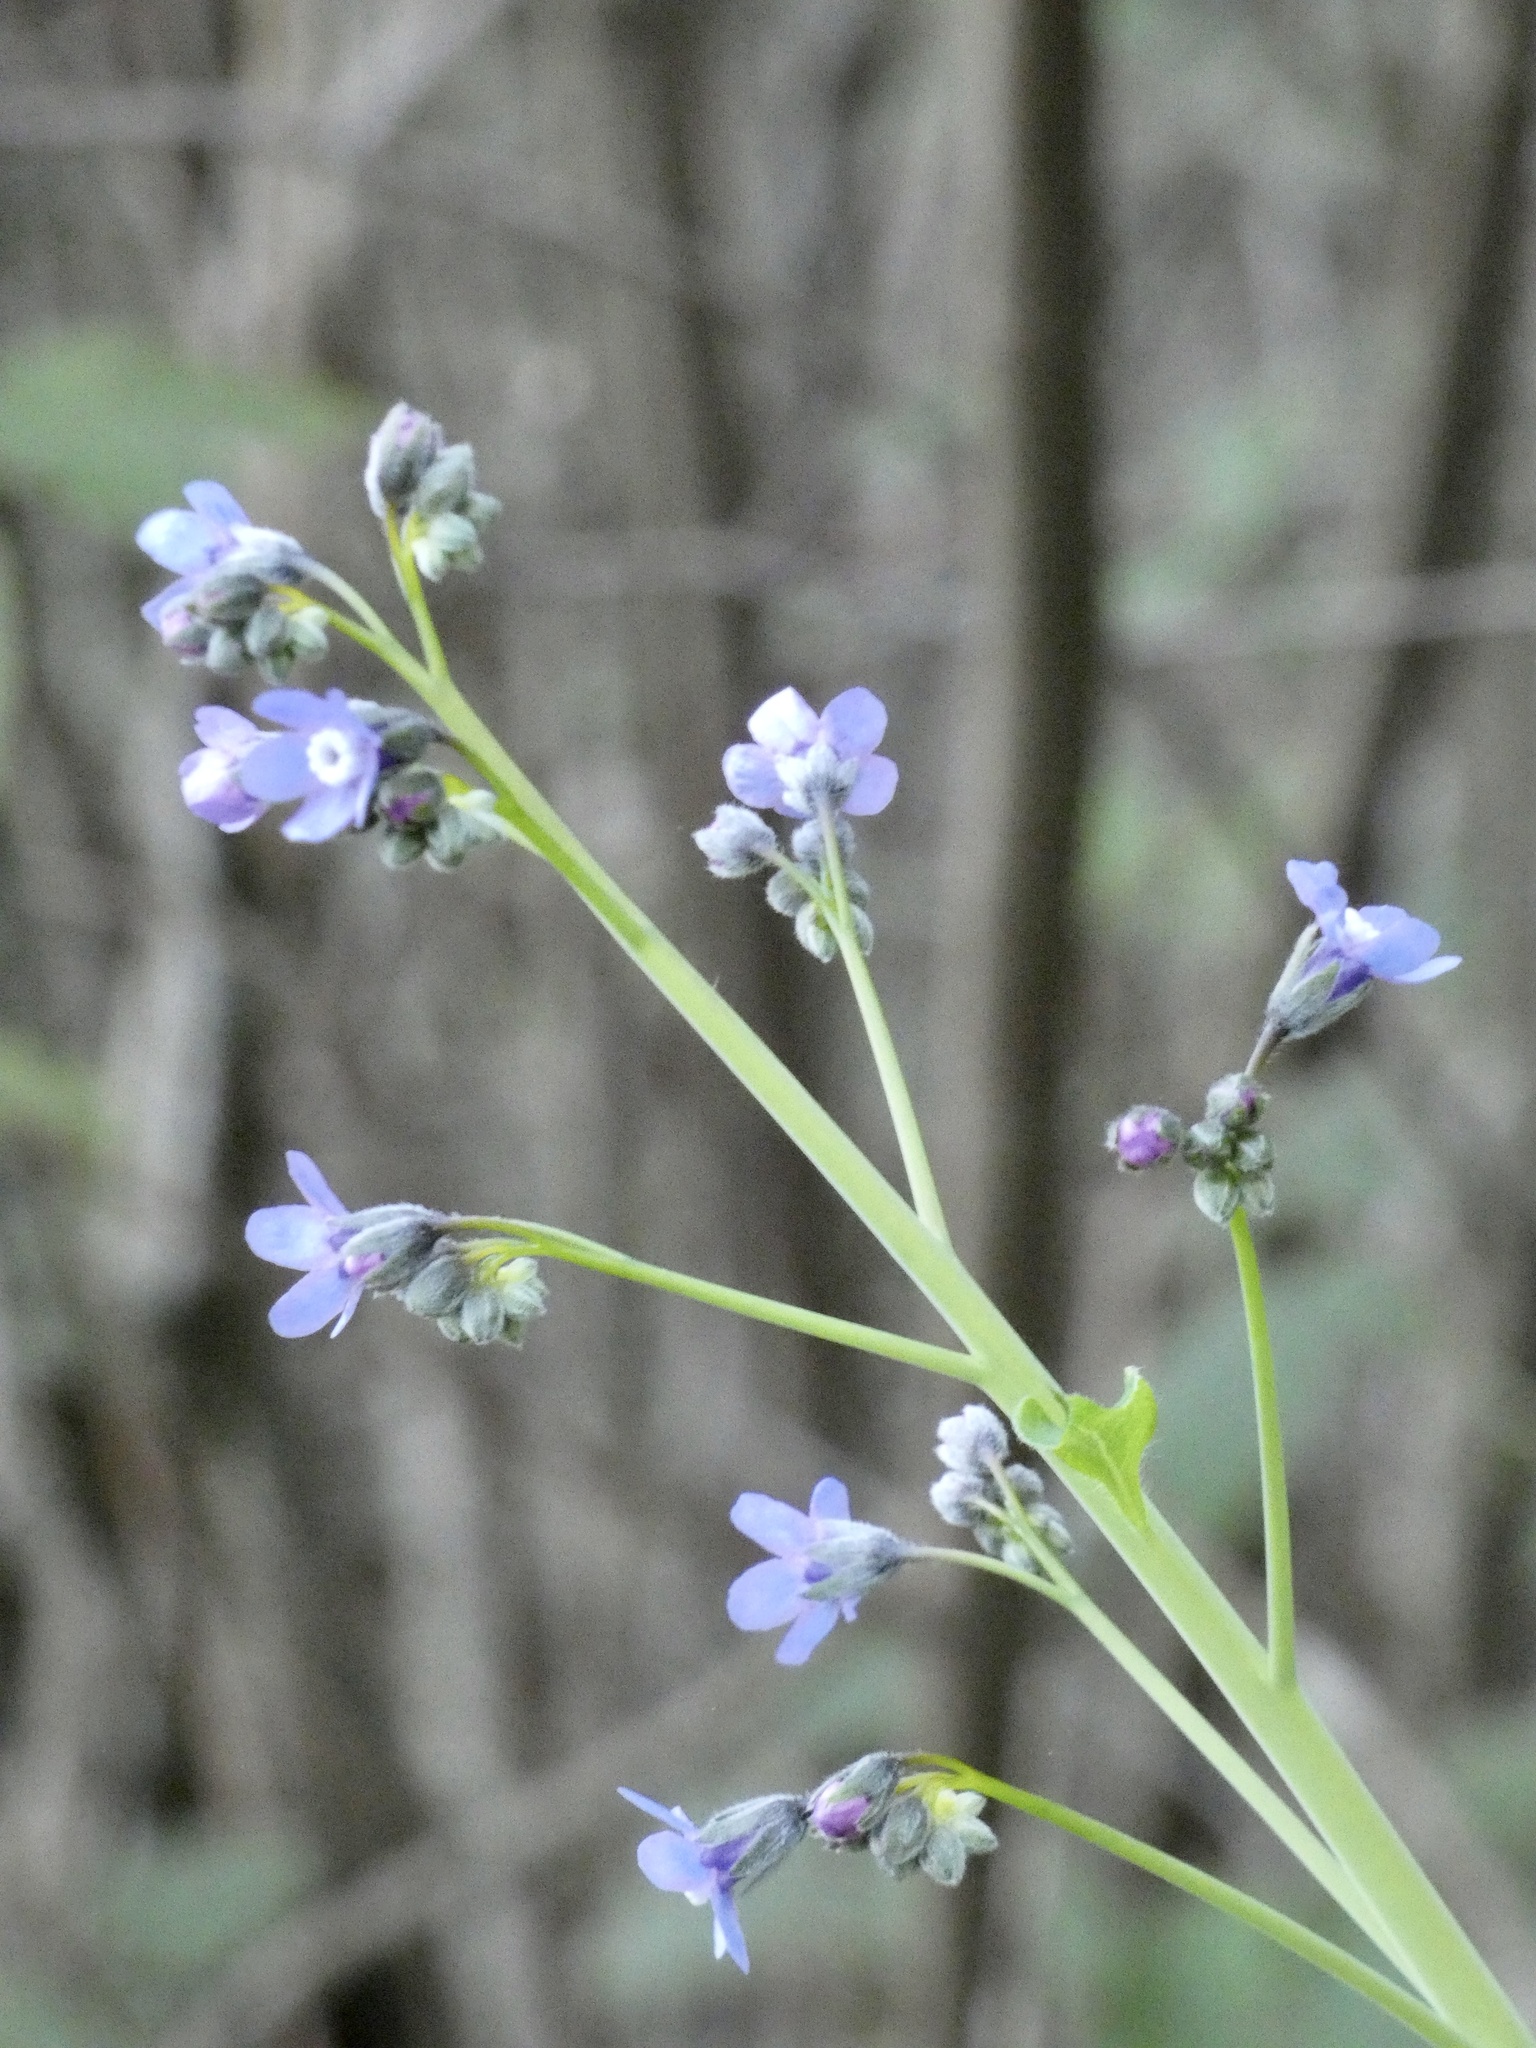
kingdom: Plantae
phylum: Tracheophyta
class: Magnoliopsida
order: Boraginales
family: Boraginaceae
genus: Adelinia
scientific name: Adelinia grande
